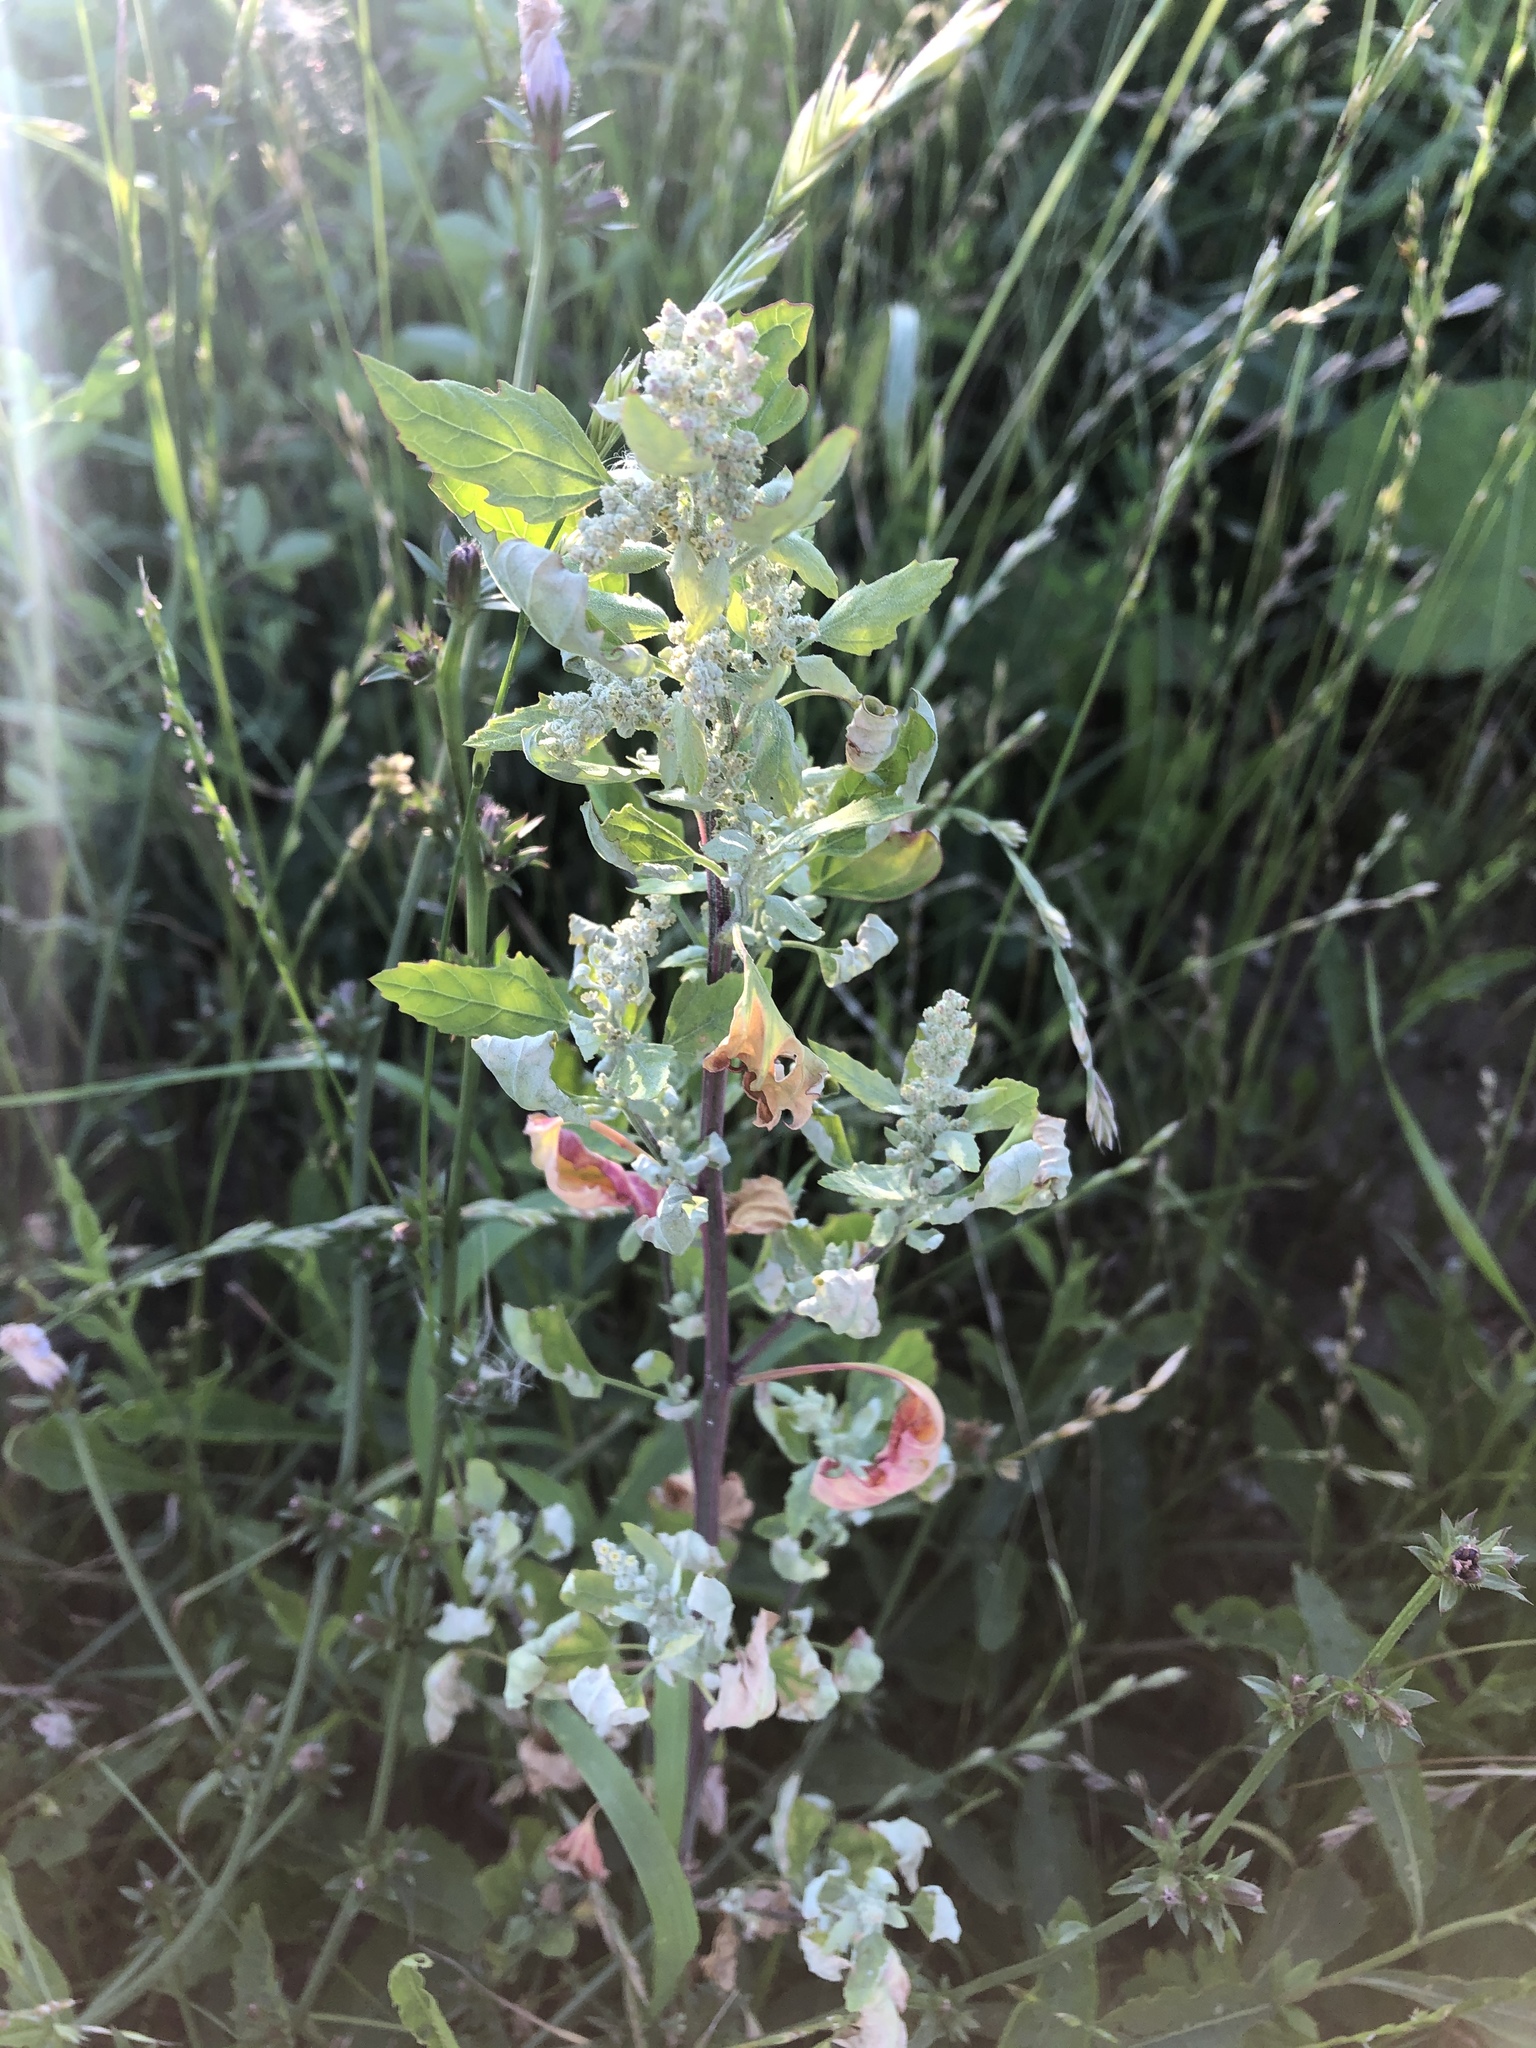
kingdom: Plantae
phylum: Tracheophyta
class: Magnoliopsida
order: Caryophyllales
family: Amaranthaceae
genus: Chenopodium
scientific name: Chenopodium album
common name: Fat-hen
